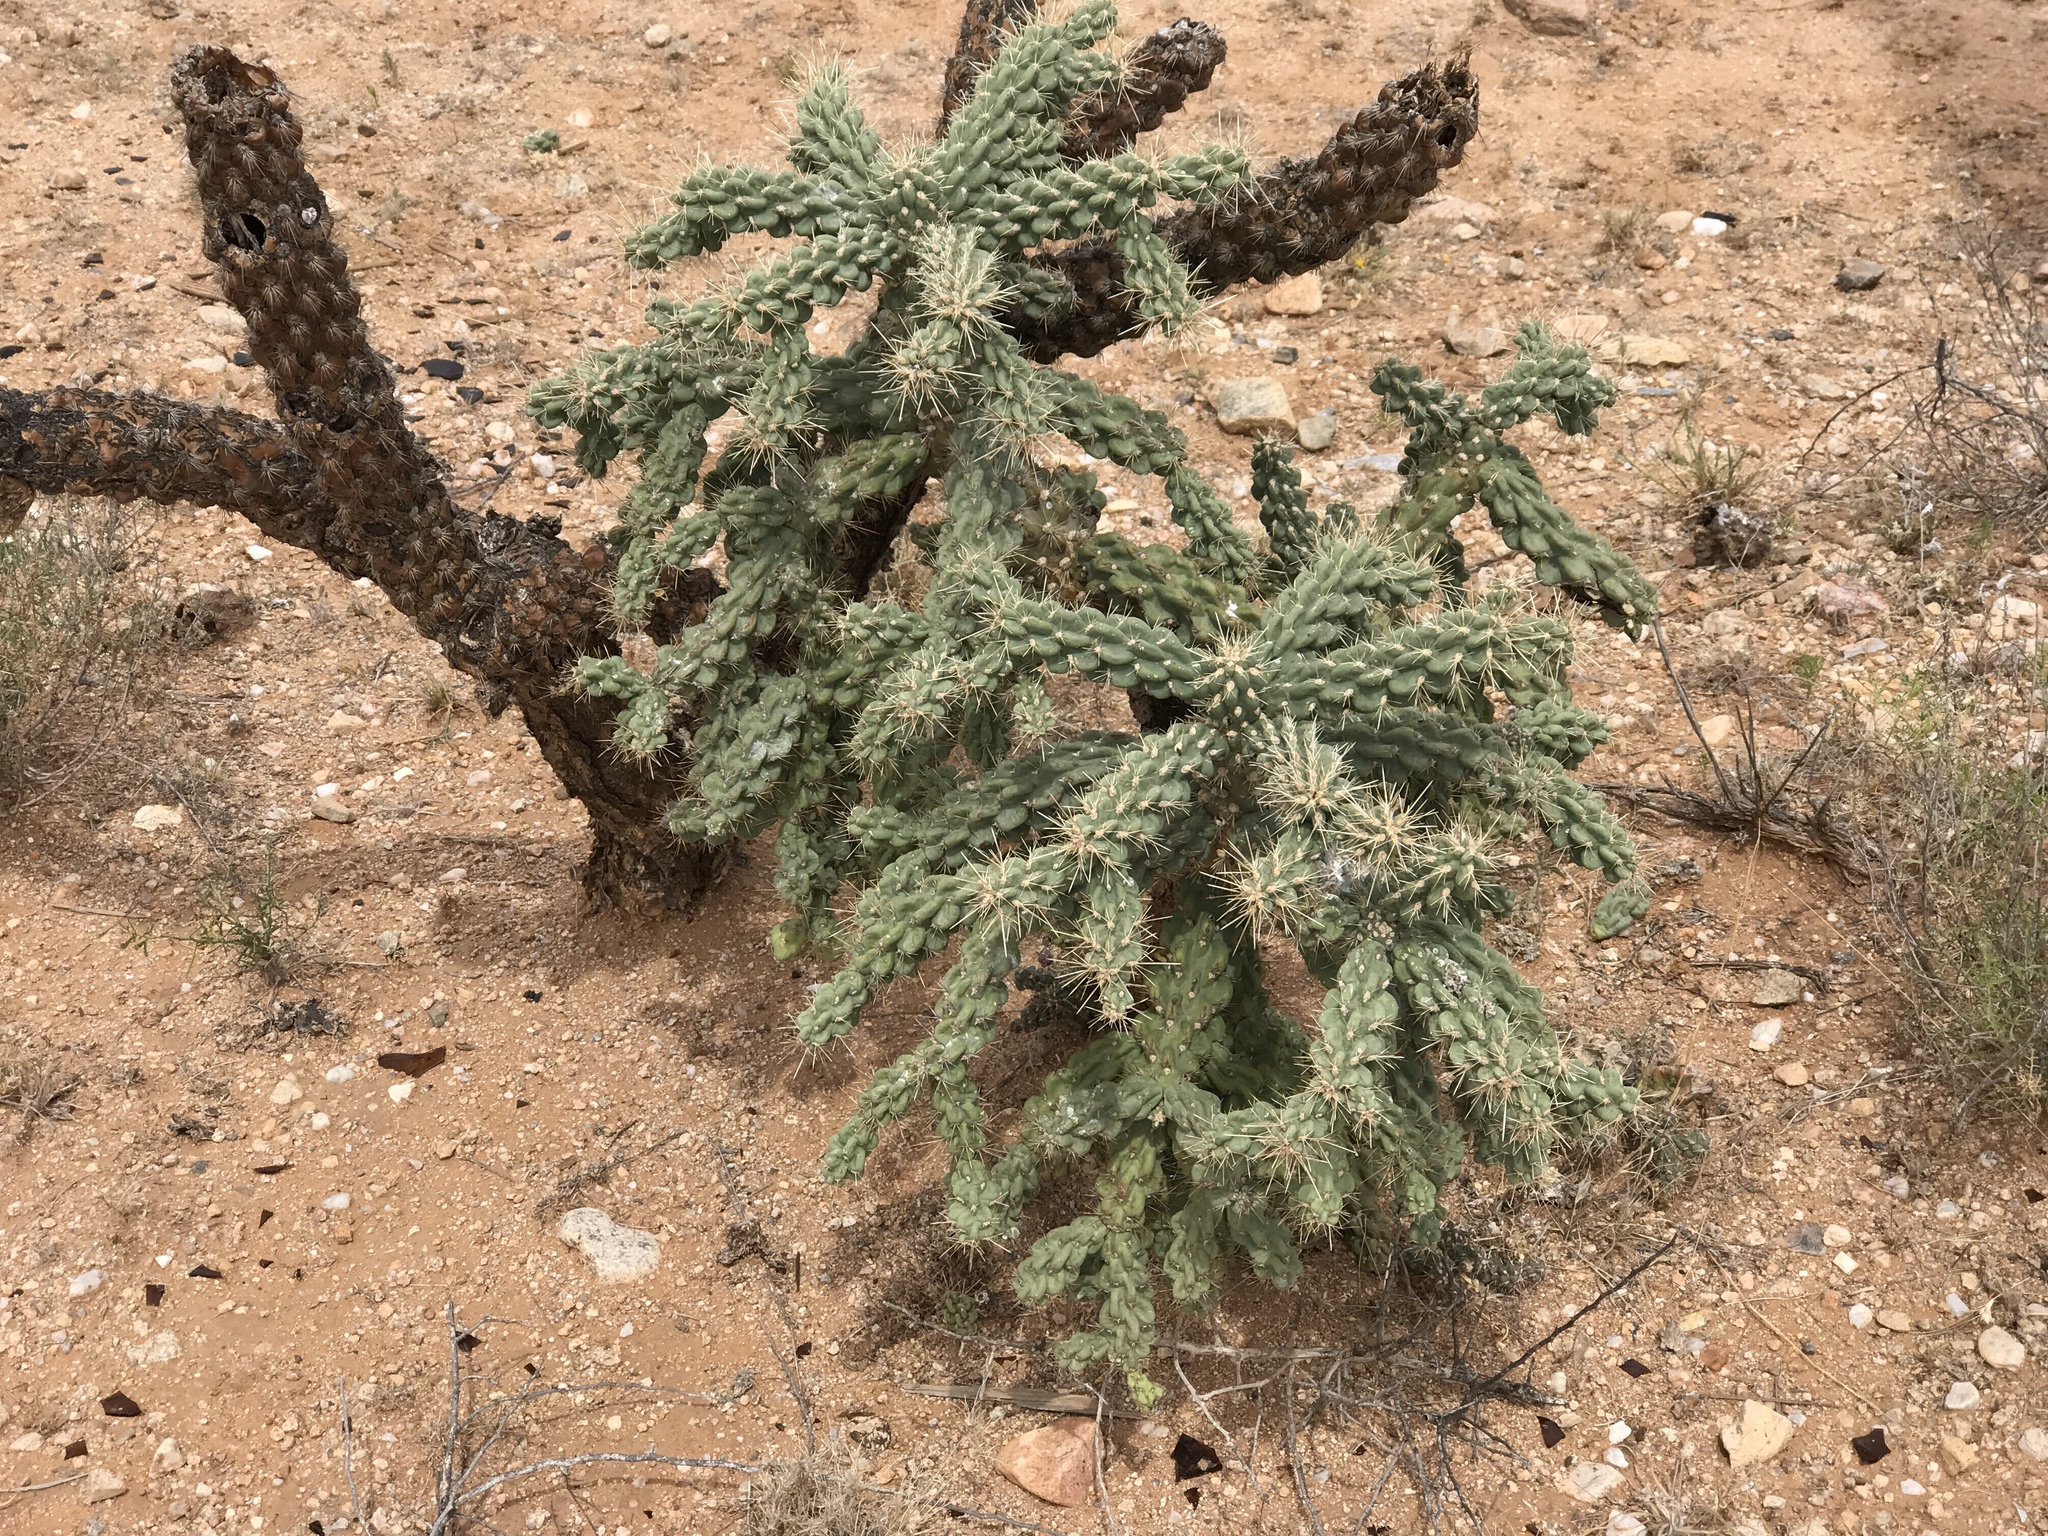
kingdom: Plantae
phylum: Tracheophyta
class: Magnoliopsida
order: Caryophyllales
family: Cactaceae
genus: Cylindropuntia
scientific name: Cylindropuntia fulgida
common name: Jumping cholla
